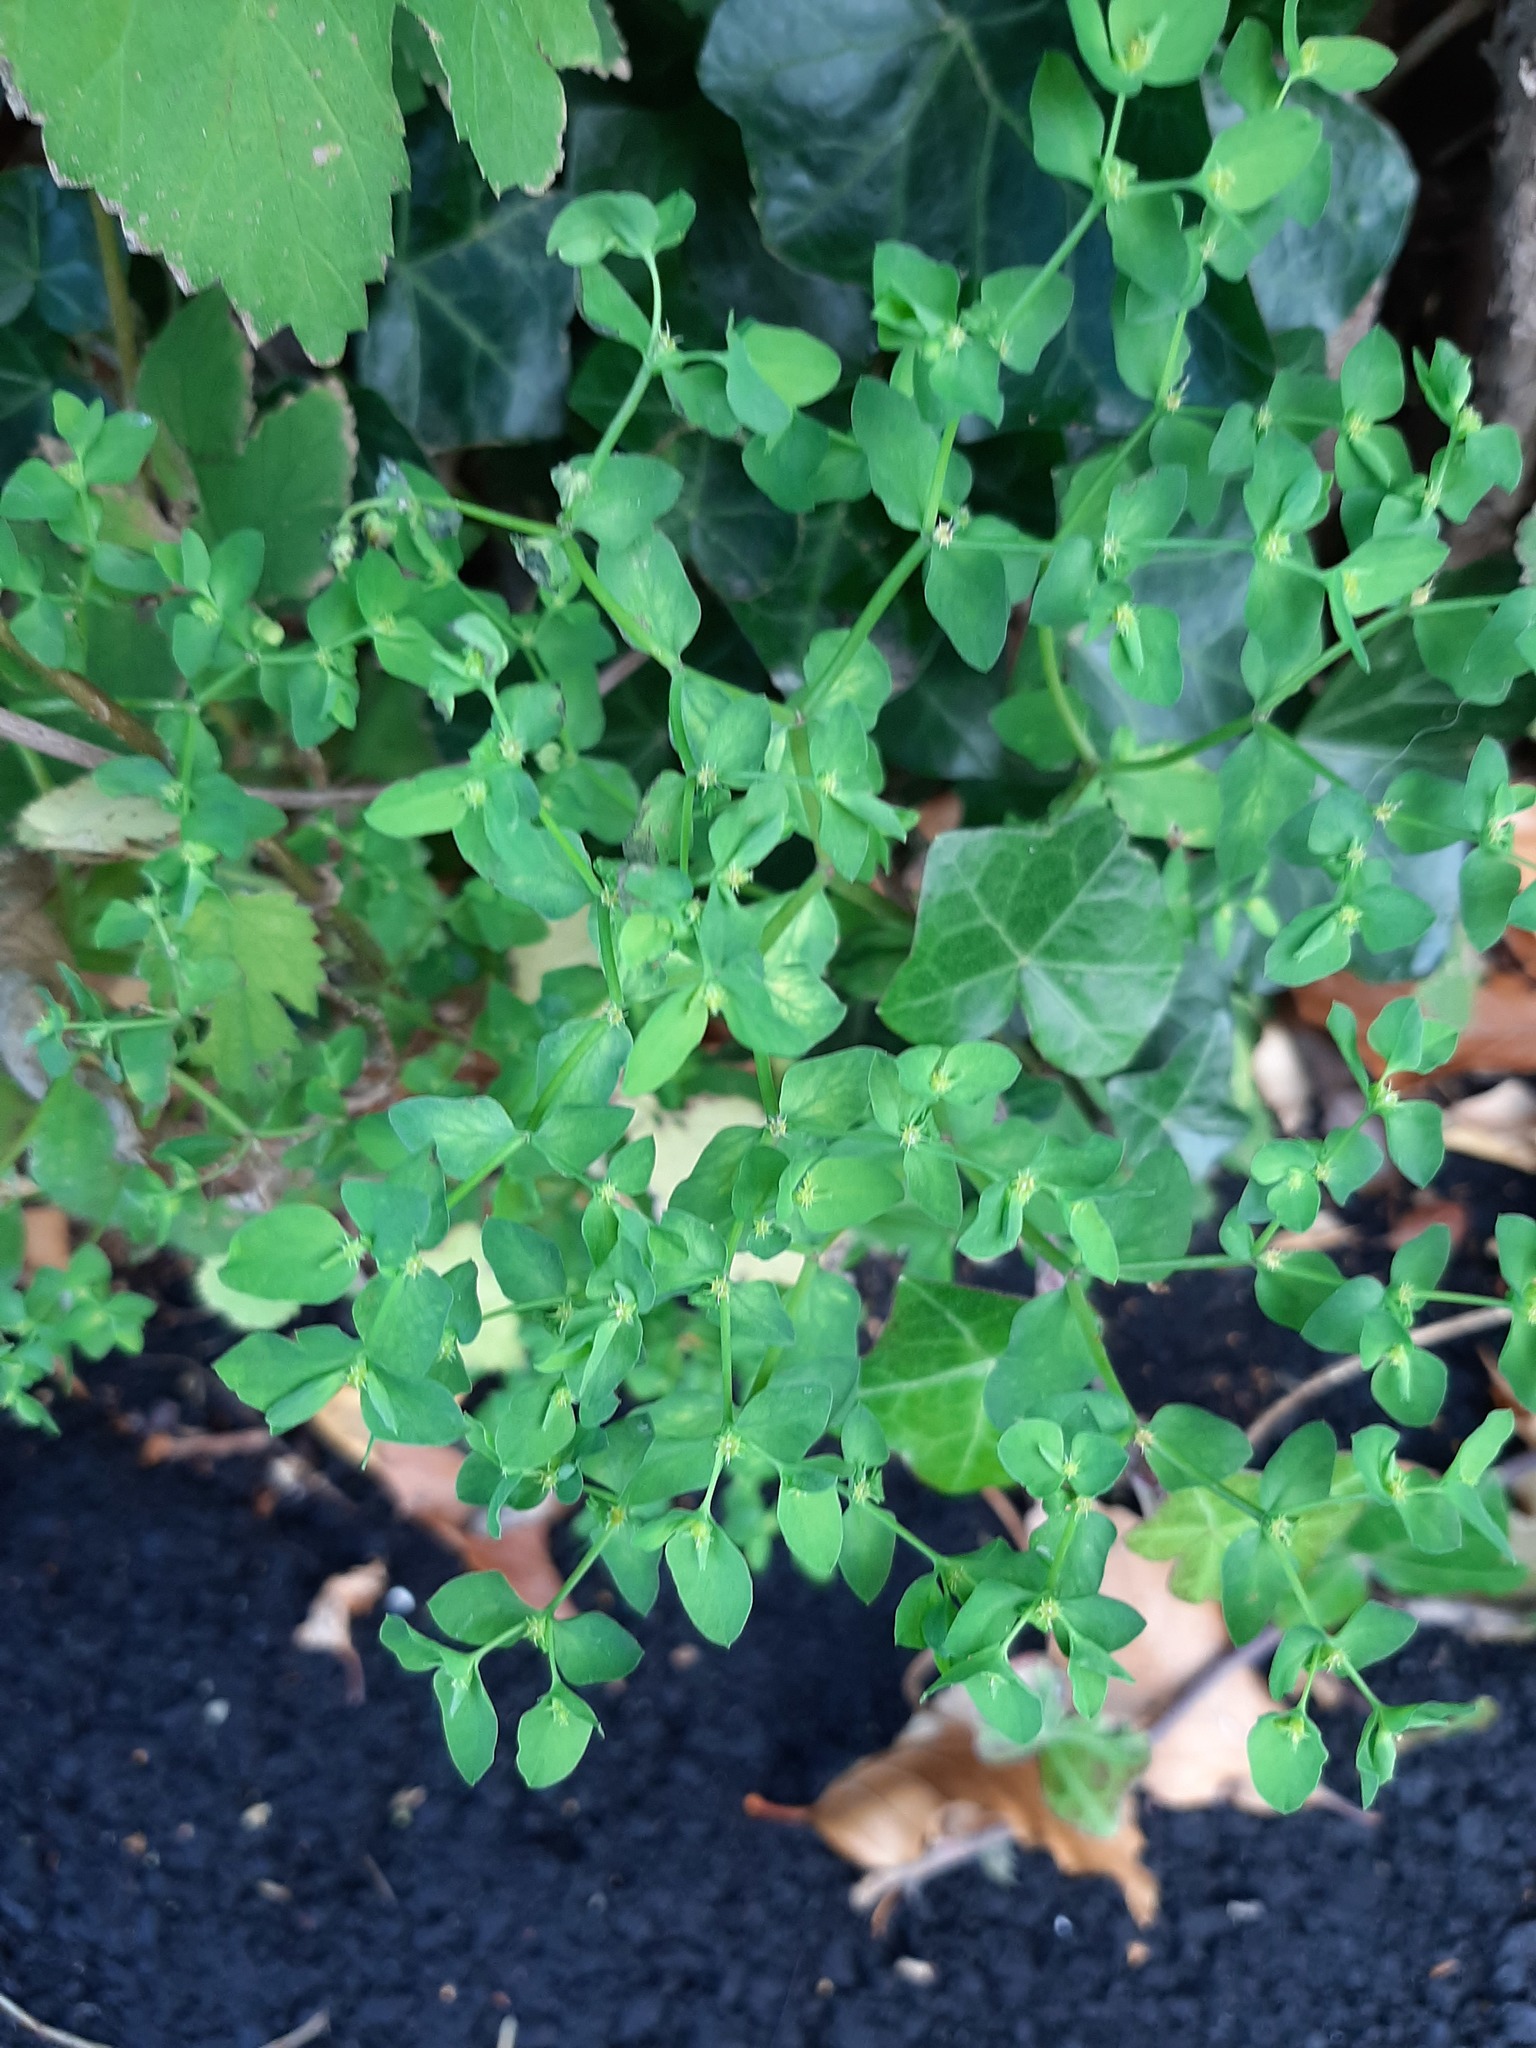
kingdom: Plantae
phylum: Tracheophyta
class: Magnoliopsida
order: Malpighiales
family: Euphorbiaceae
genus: Euphorbia
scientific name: Euphorbia peplus
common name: Petty spurge
